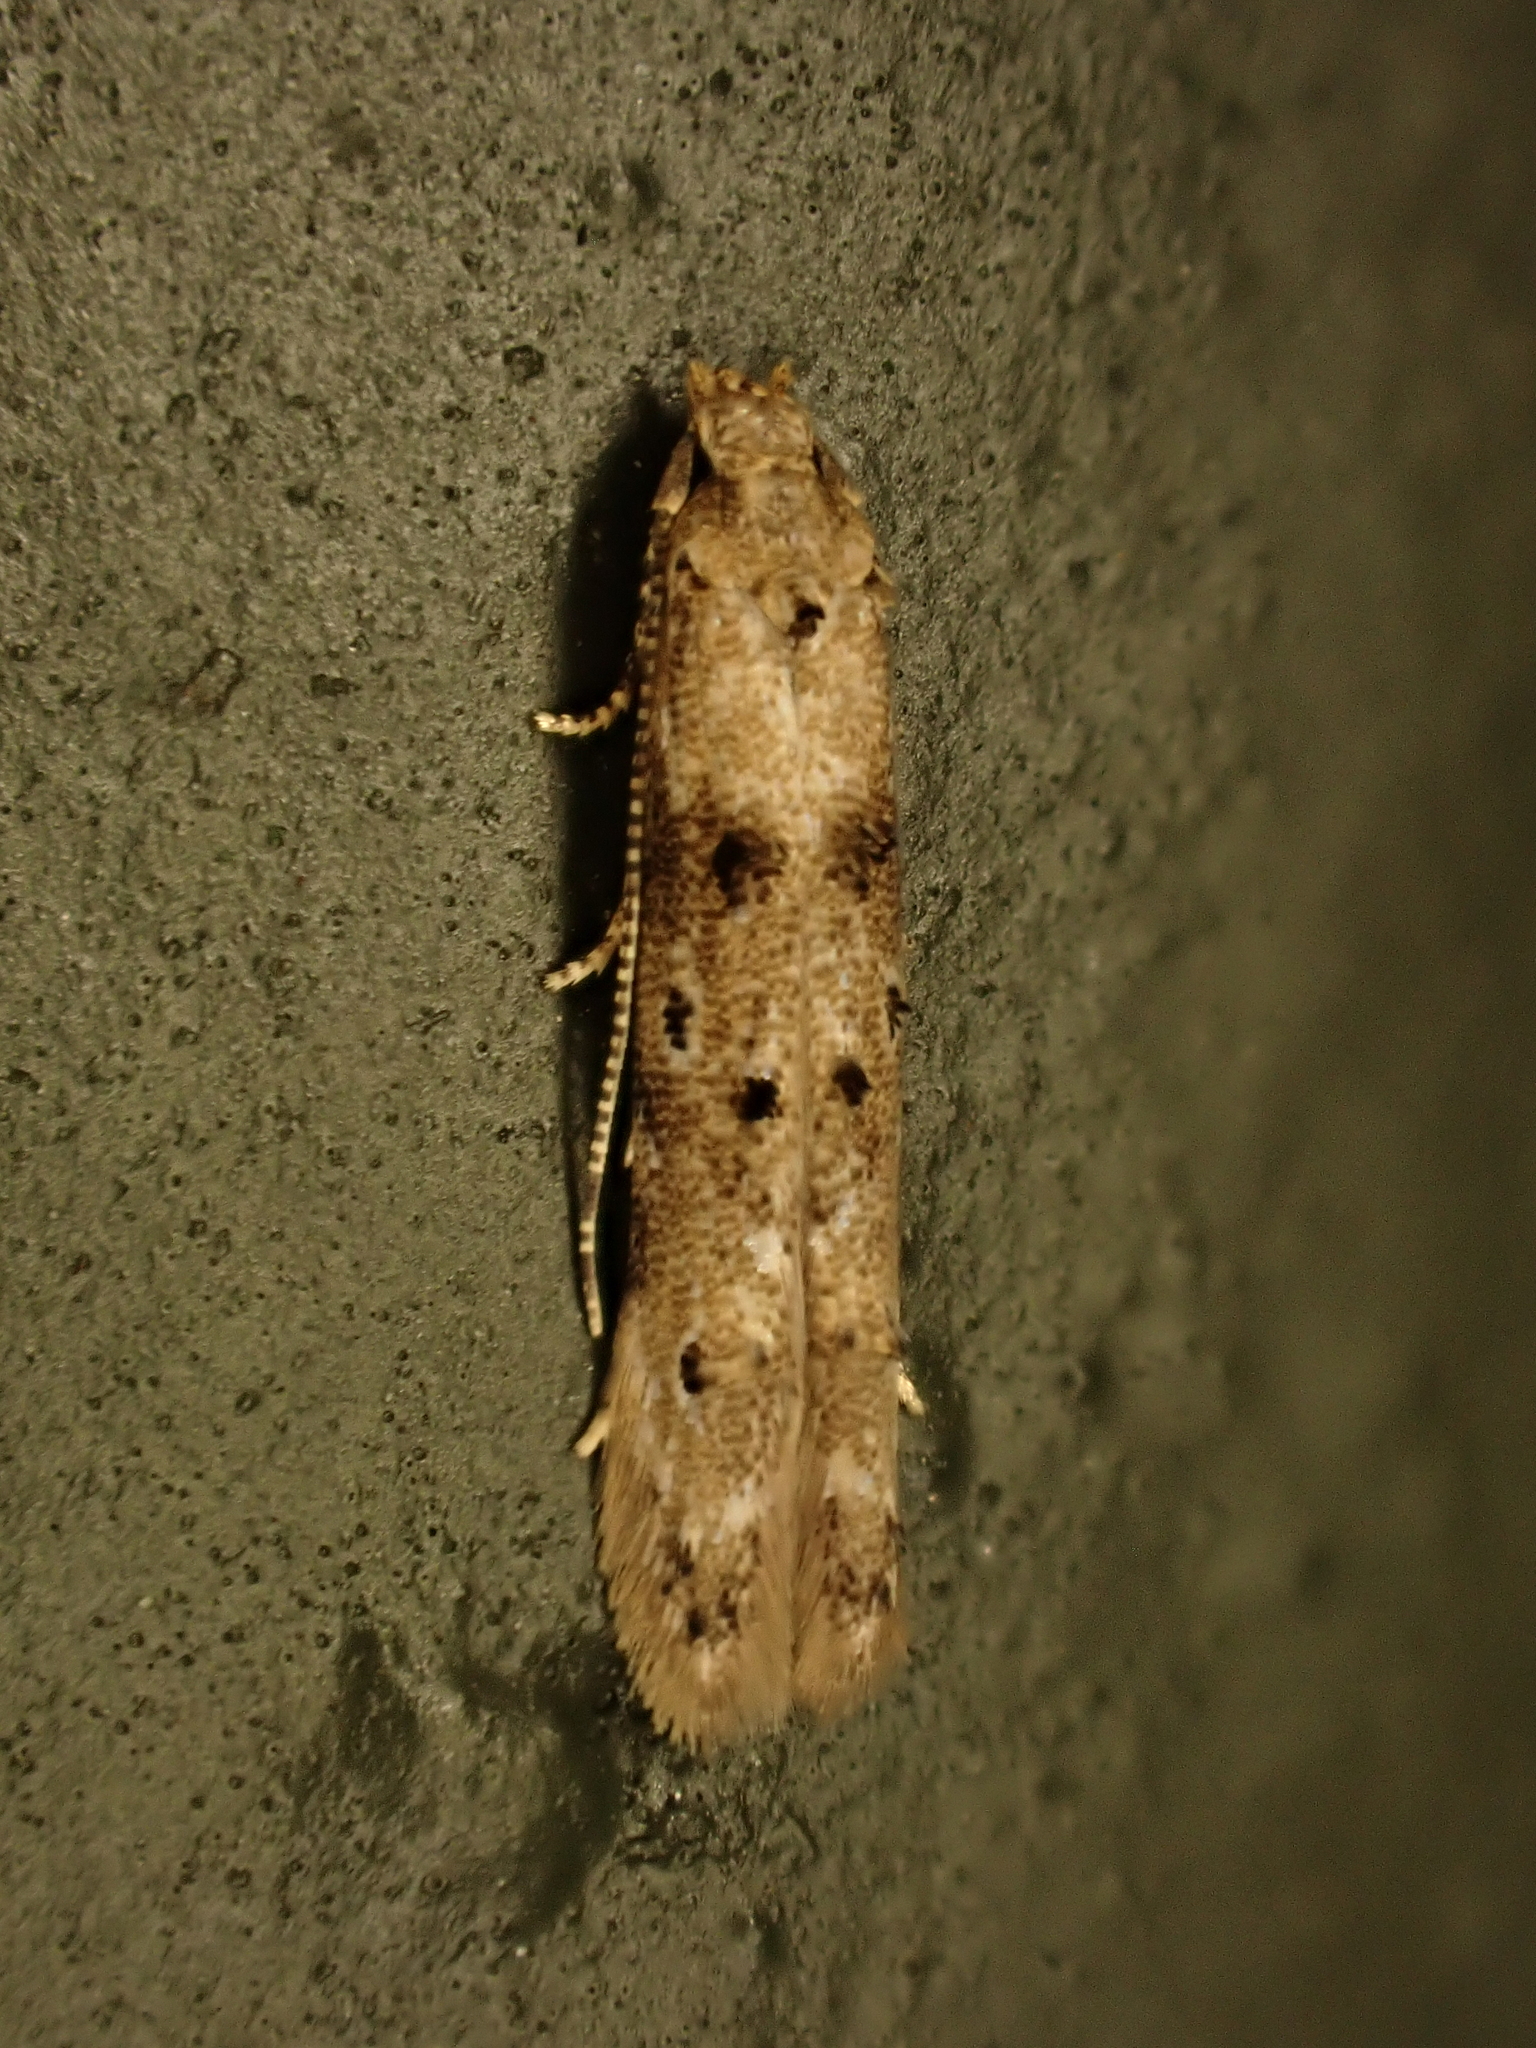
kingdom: Animalia
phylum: Arthropoda
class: Insecta
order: Lepidoptera
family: Elachistidae
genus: Microcolona
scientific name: Microcolona limodes
